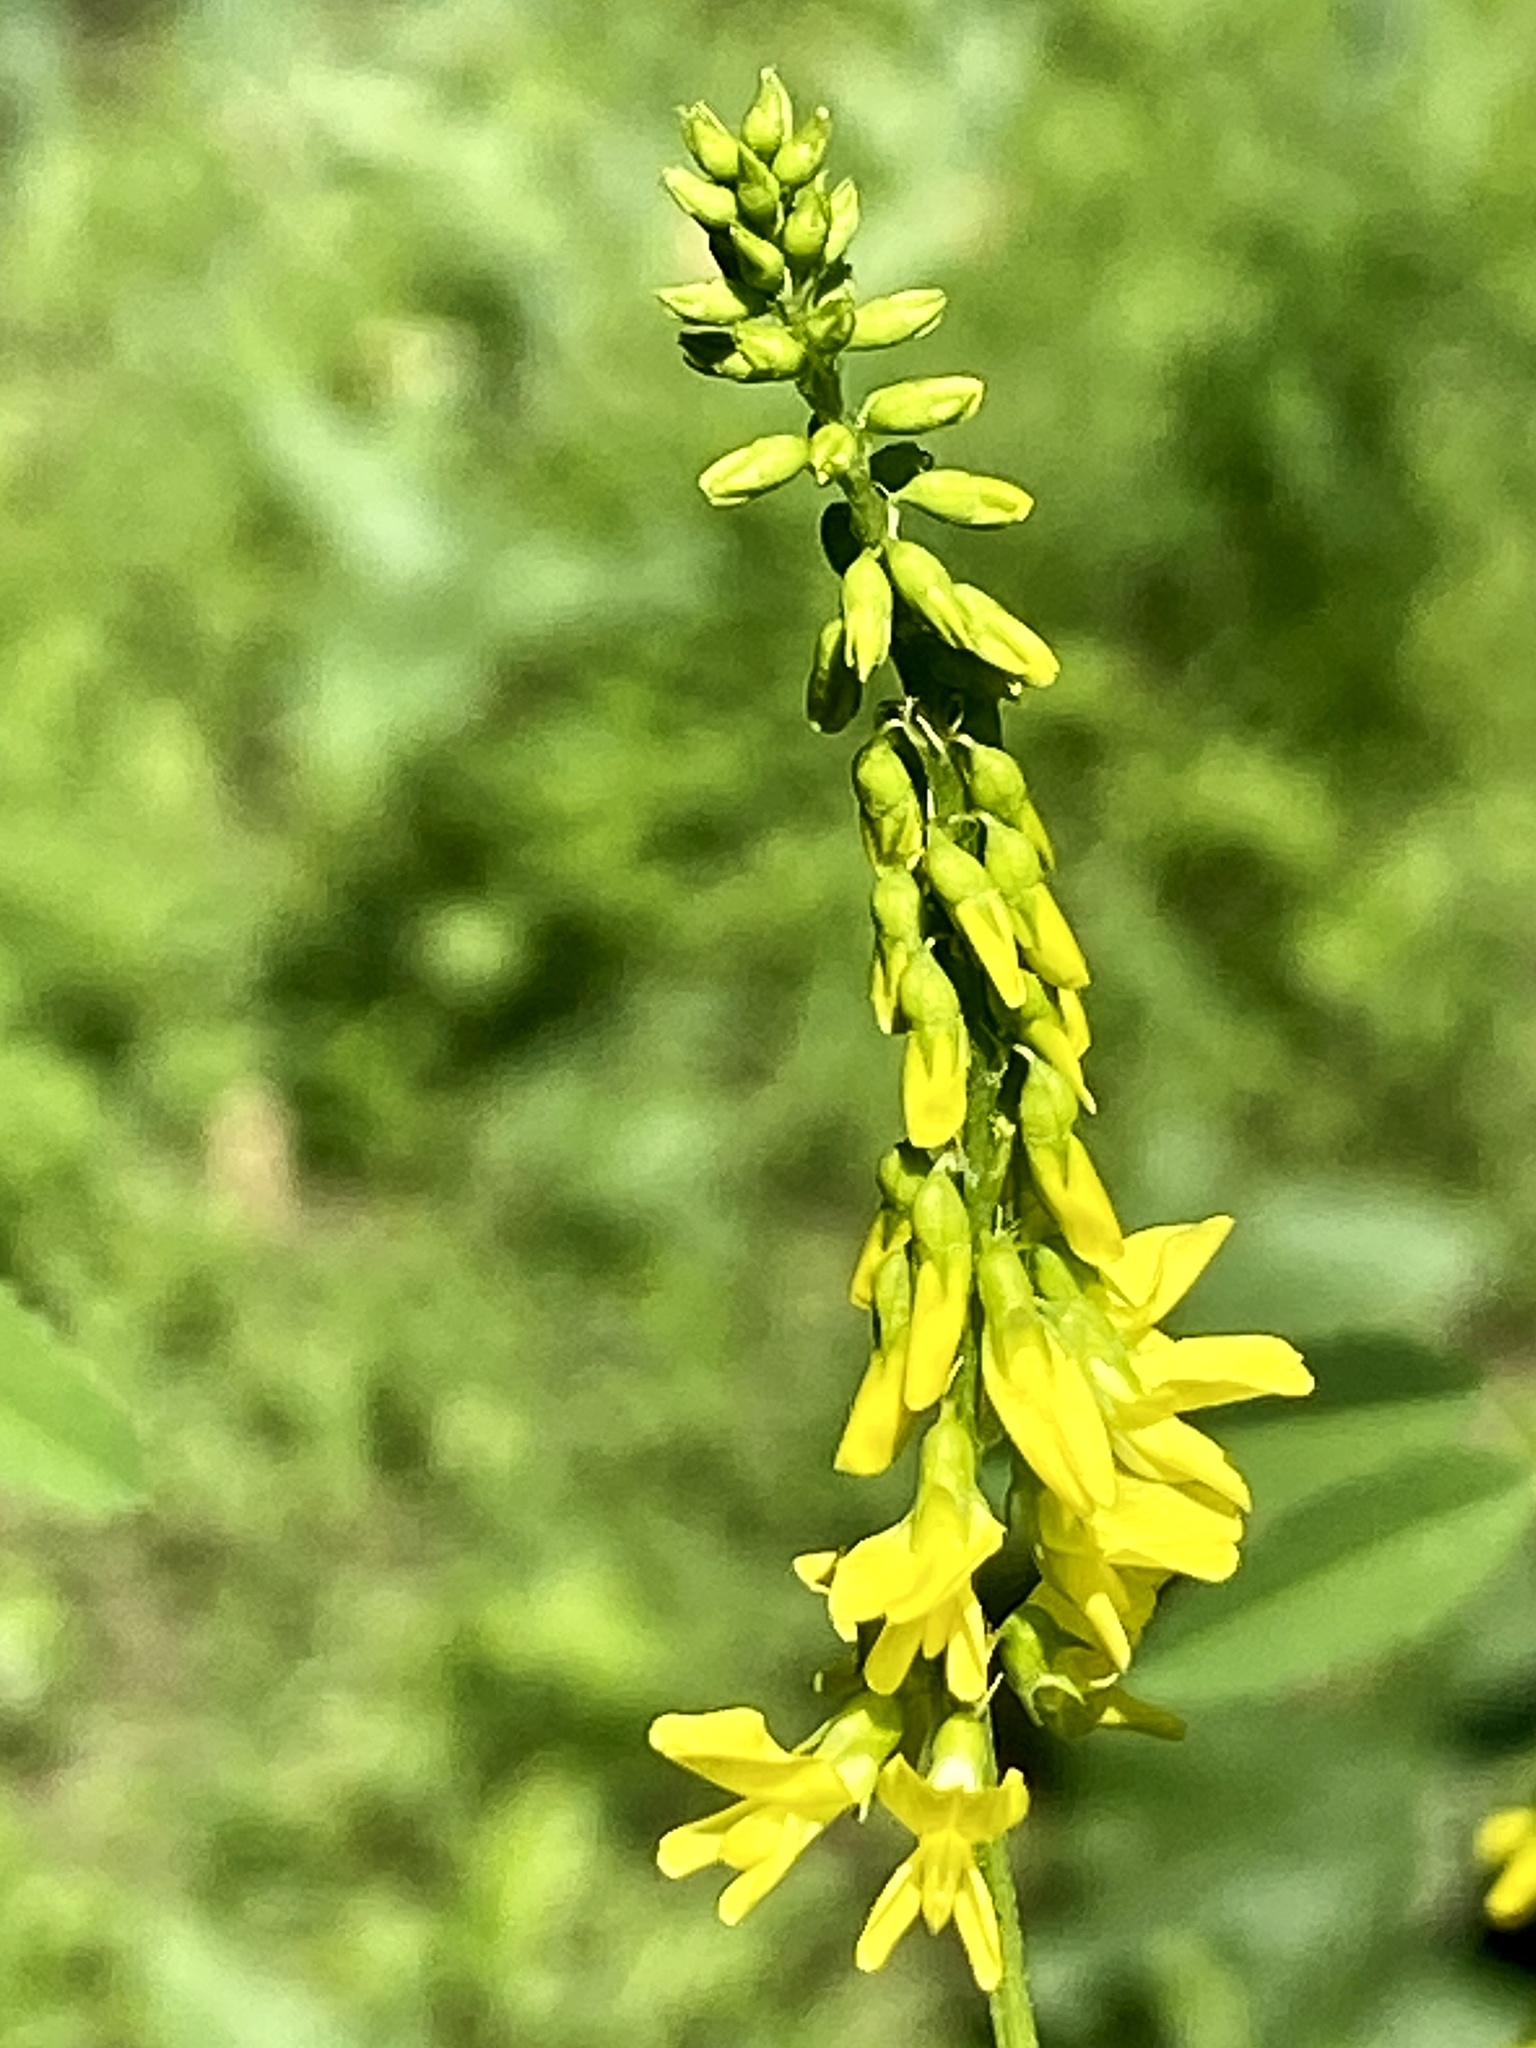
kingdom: Plantae
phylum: Tracheophyta
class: Magnoliopsida
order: Fabales
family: Fabaceae
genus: Melilotus
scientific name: Melilotus officinalis
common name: Sweetclover
